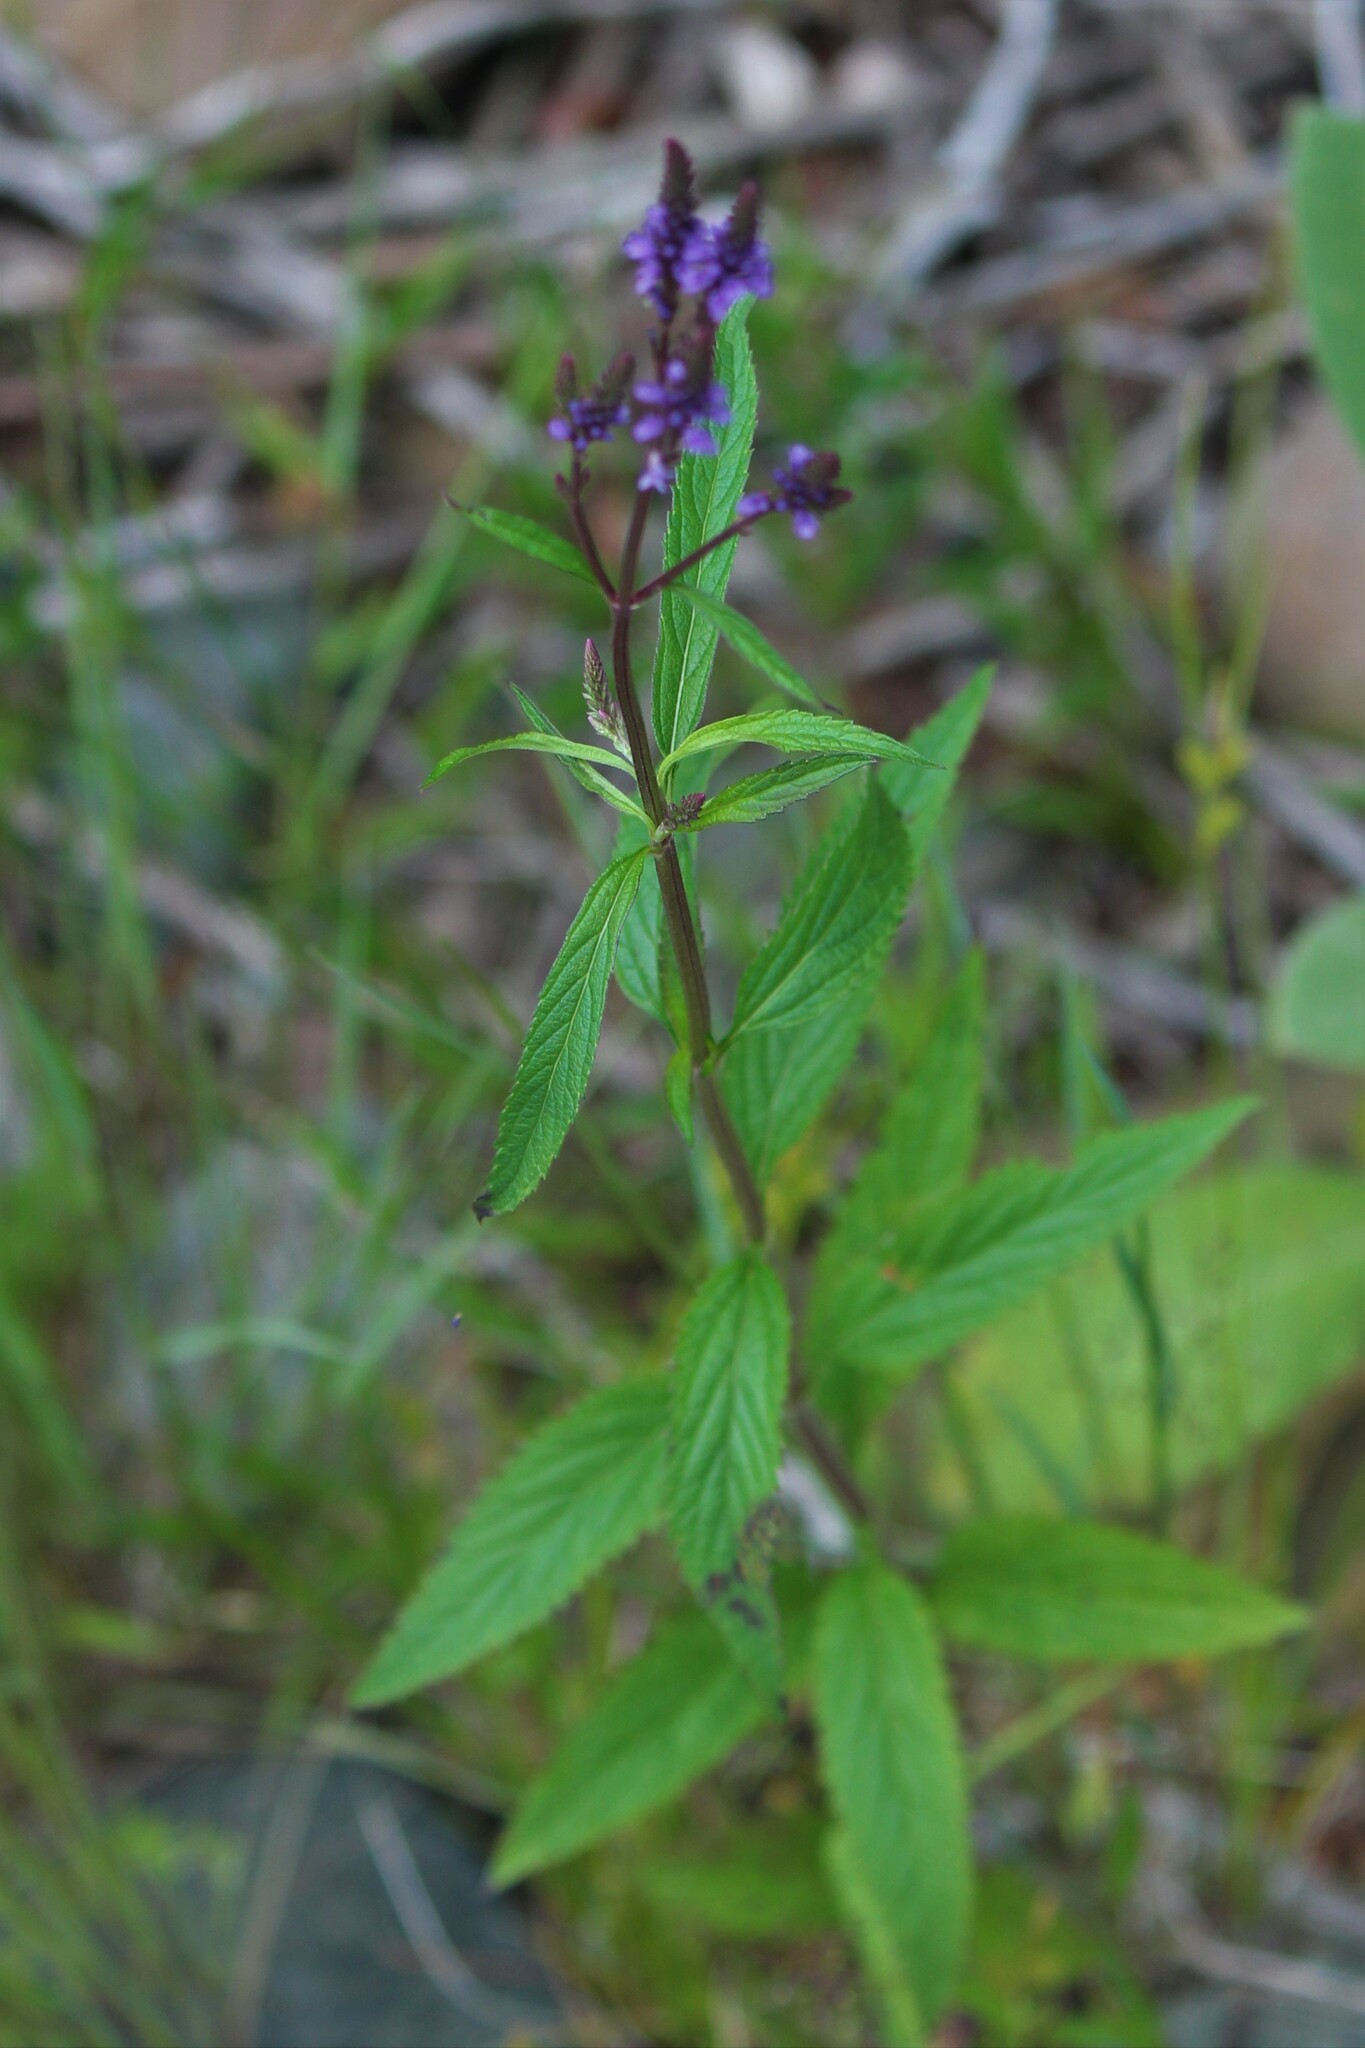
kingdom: Plantae
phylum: Tracheophyta
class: Magnoliopsida
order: Lamiales
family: Verbenaceae
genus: Verbena
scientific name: Verbena hastata
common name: American blue vervain
